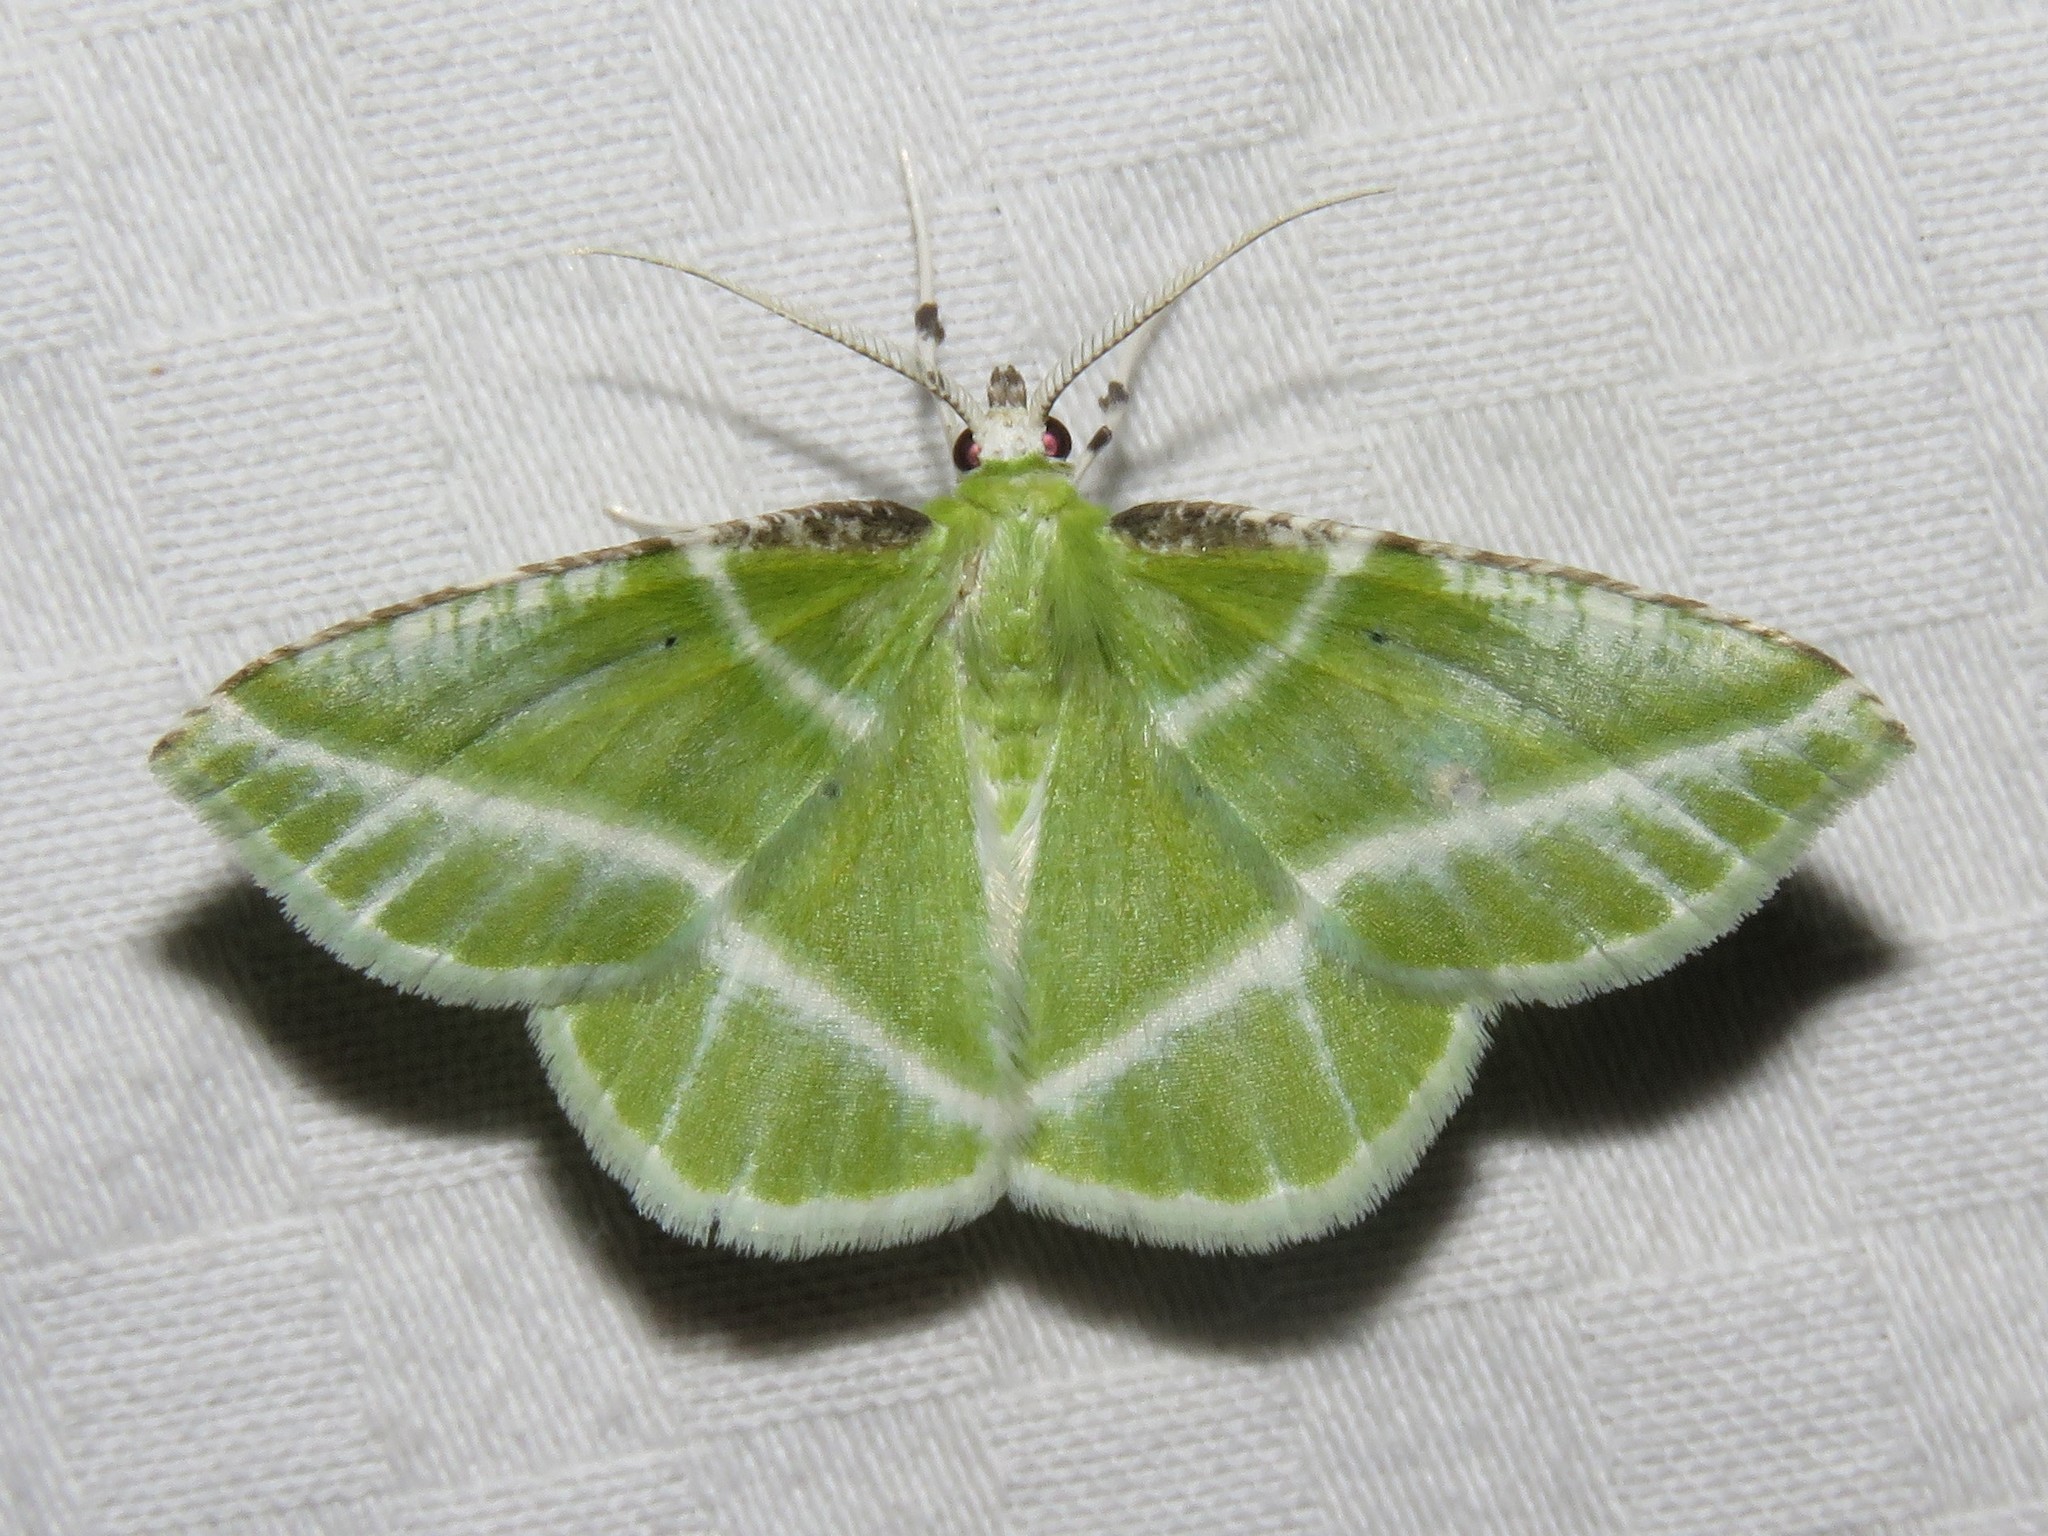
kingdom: Animalia
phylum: Arthropoda
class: Insecta
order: Lepidoptera
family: Geometridae
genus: Dichorda
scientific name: Dichorda iridaria
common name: Showy emerald
